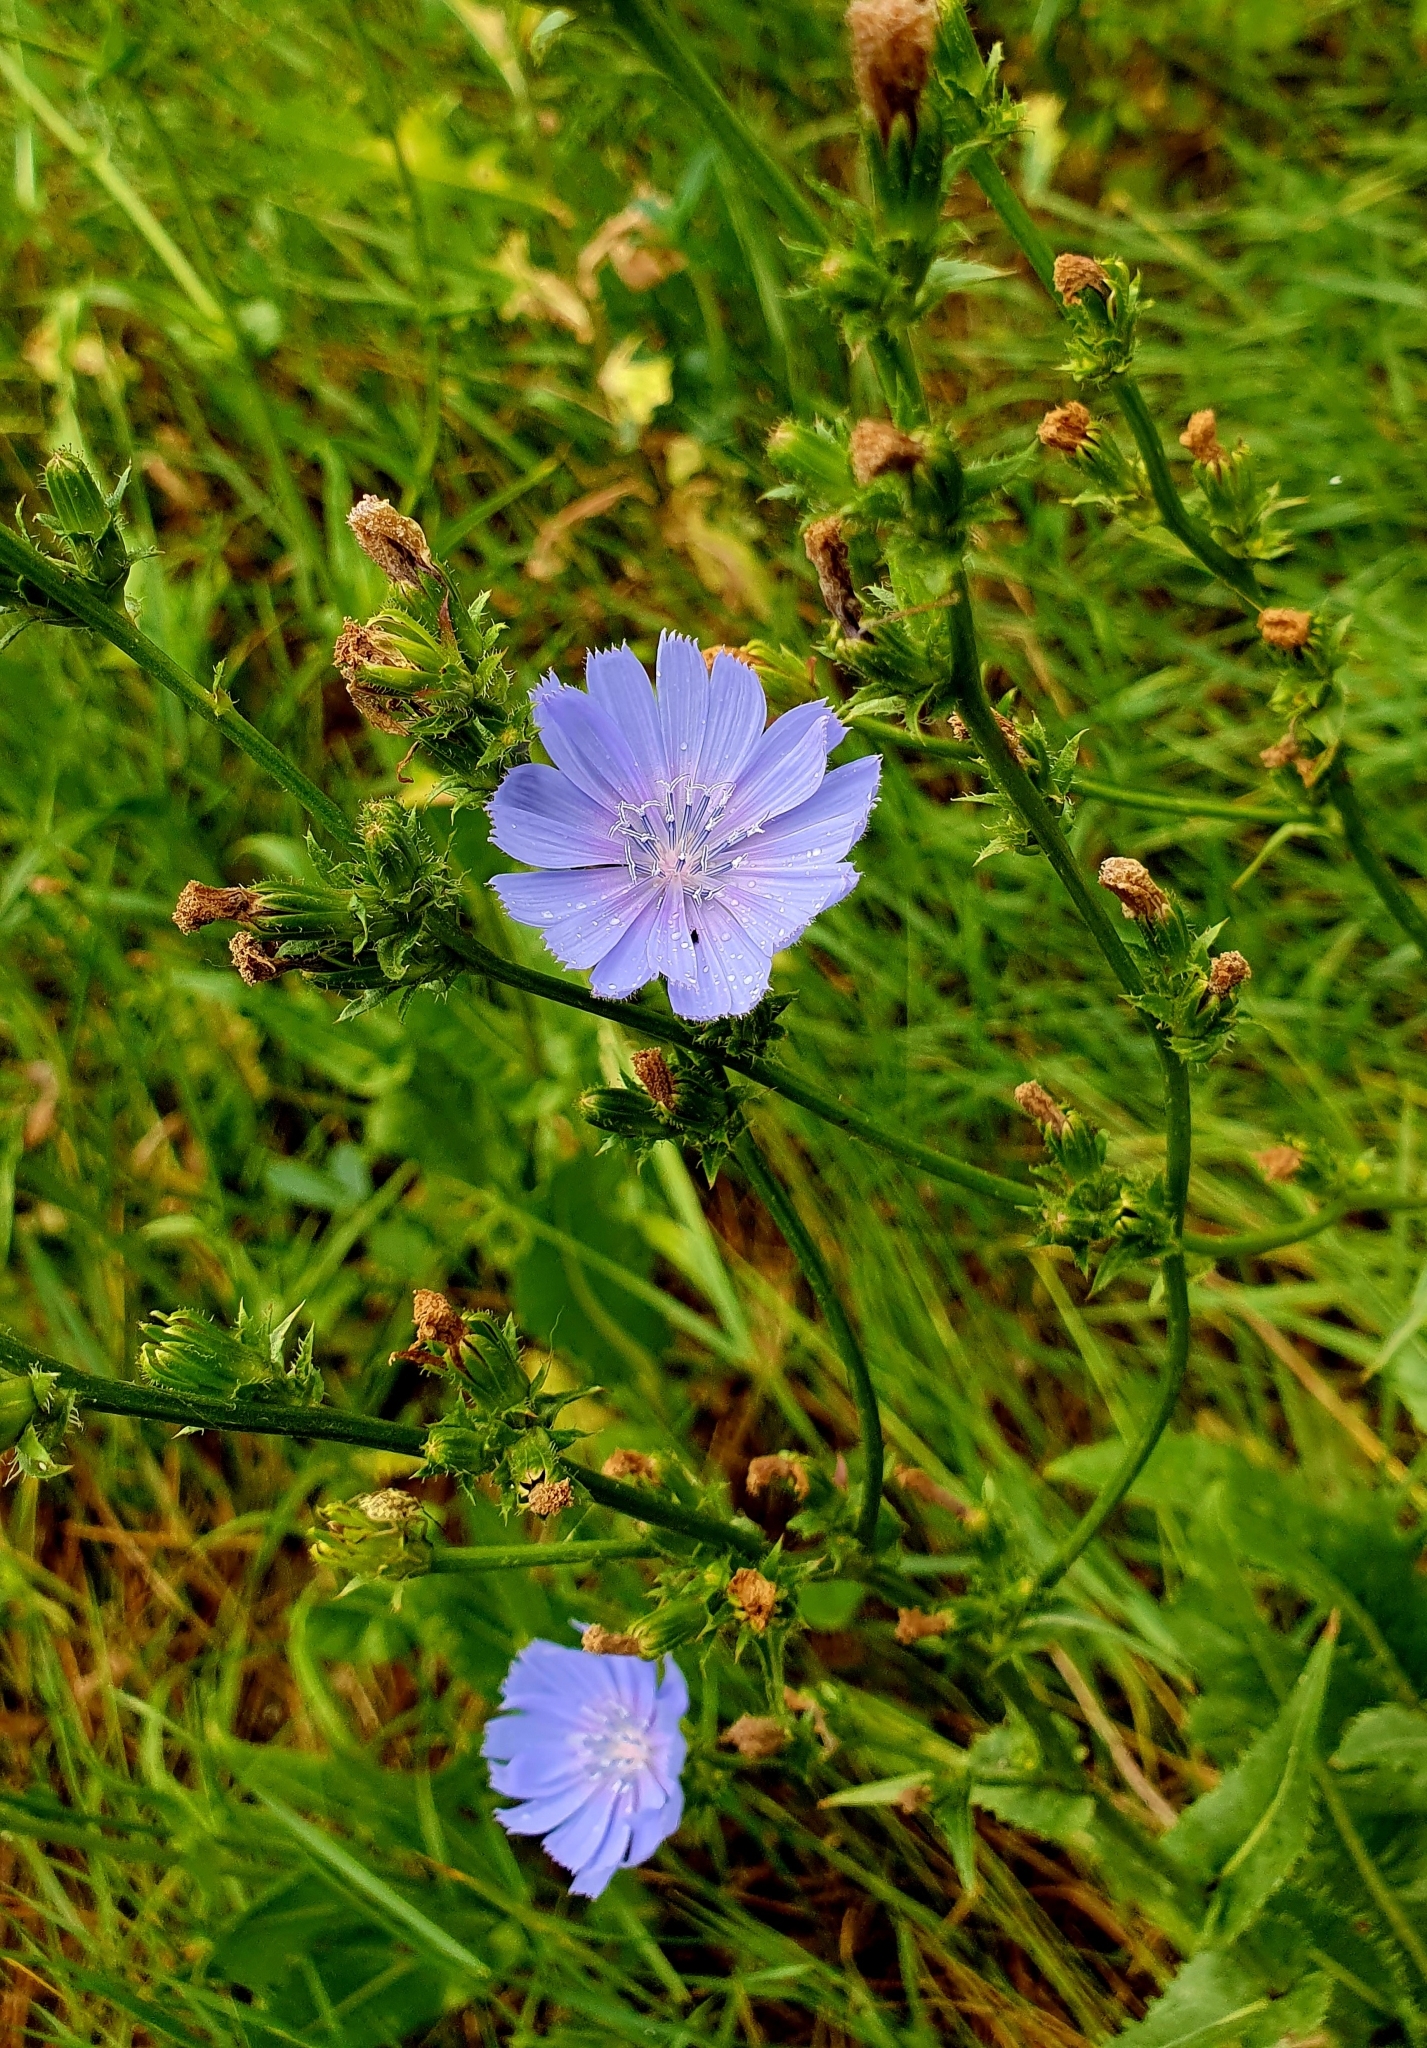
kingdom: Plantae
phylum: Tracheophyta
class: Magnoliopsida
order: Asterales
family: Asteraceae
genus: Cichorium
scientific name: Cichorium intybus
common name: Chicory
